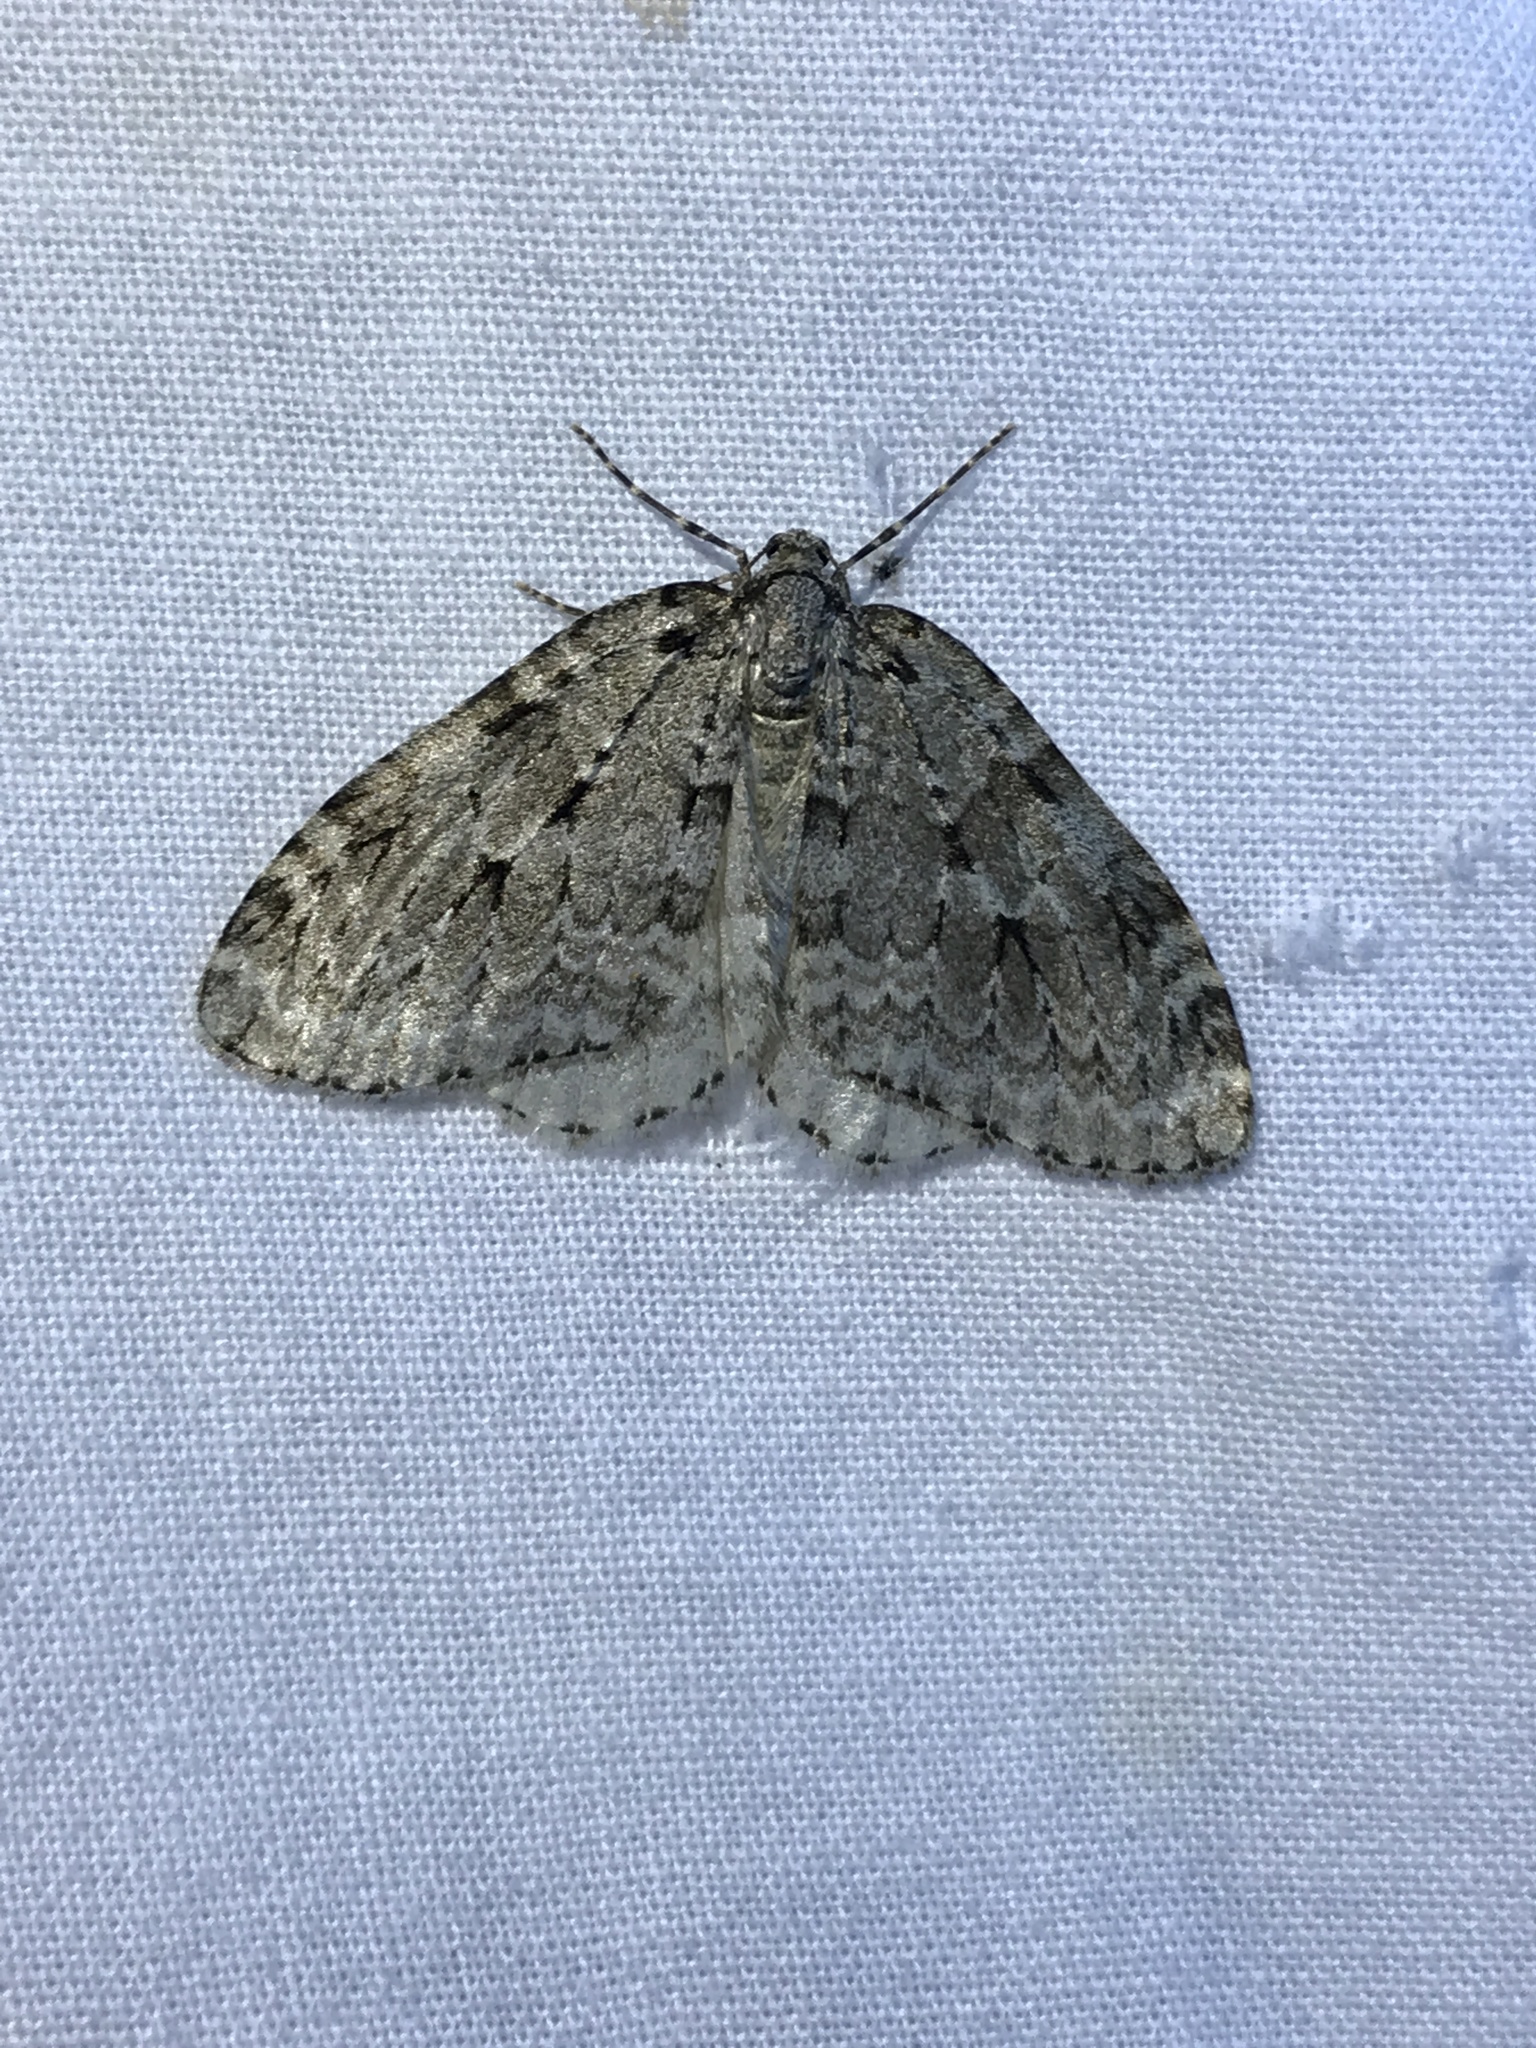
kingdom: Animalia
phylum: Arthropoda
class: Insecta
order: Lepidoptera
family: Geometridae
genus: Epirrita
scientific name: Epirrita autumnata
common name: Autumnal moth
